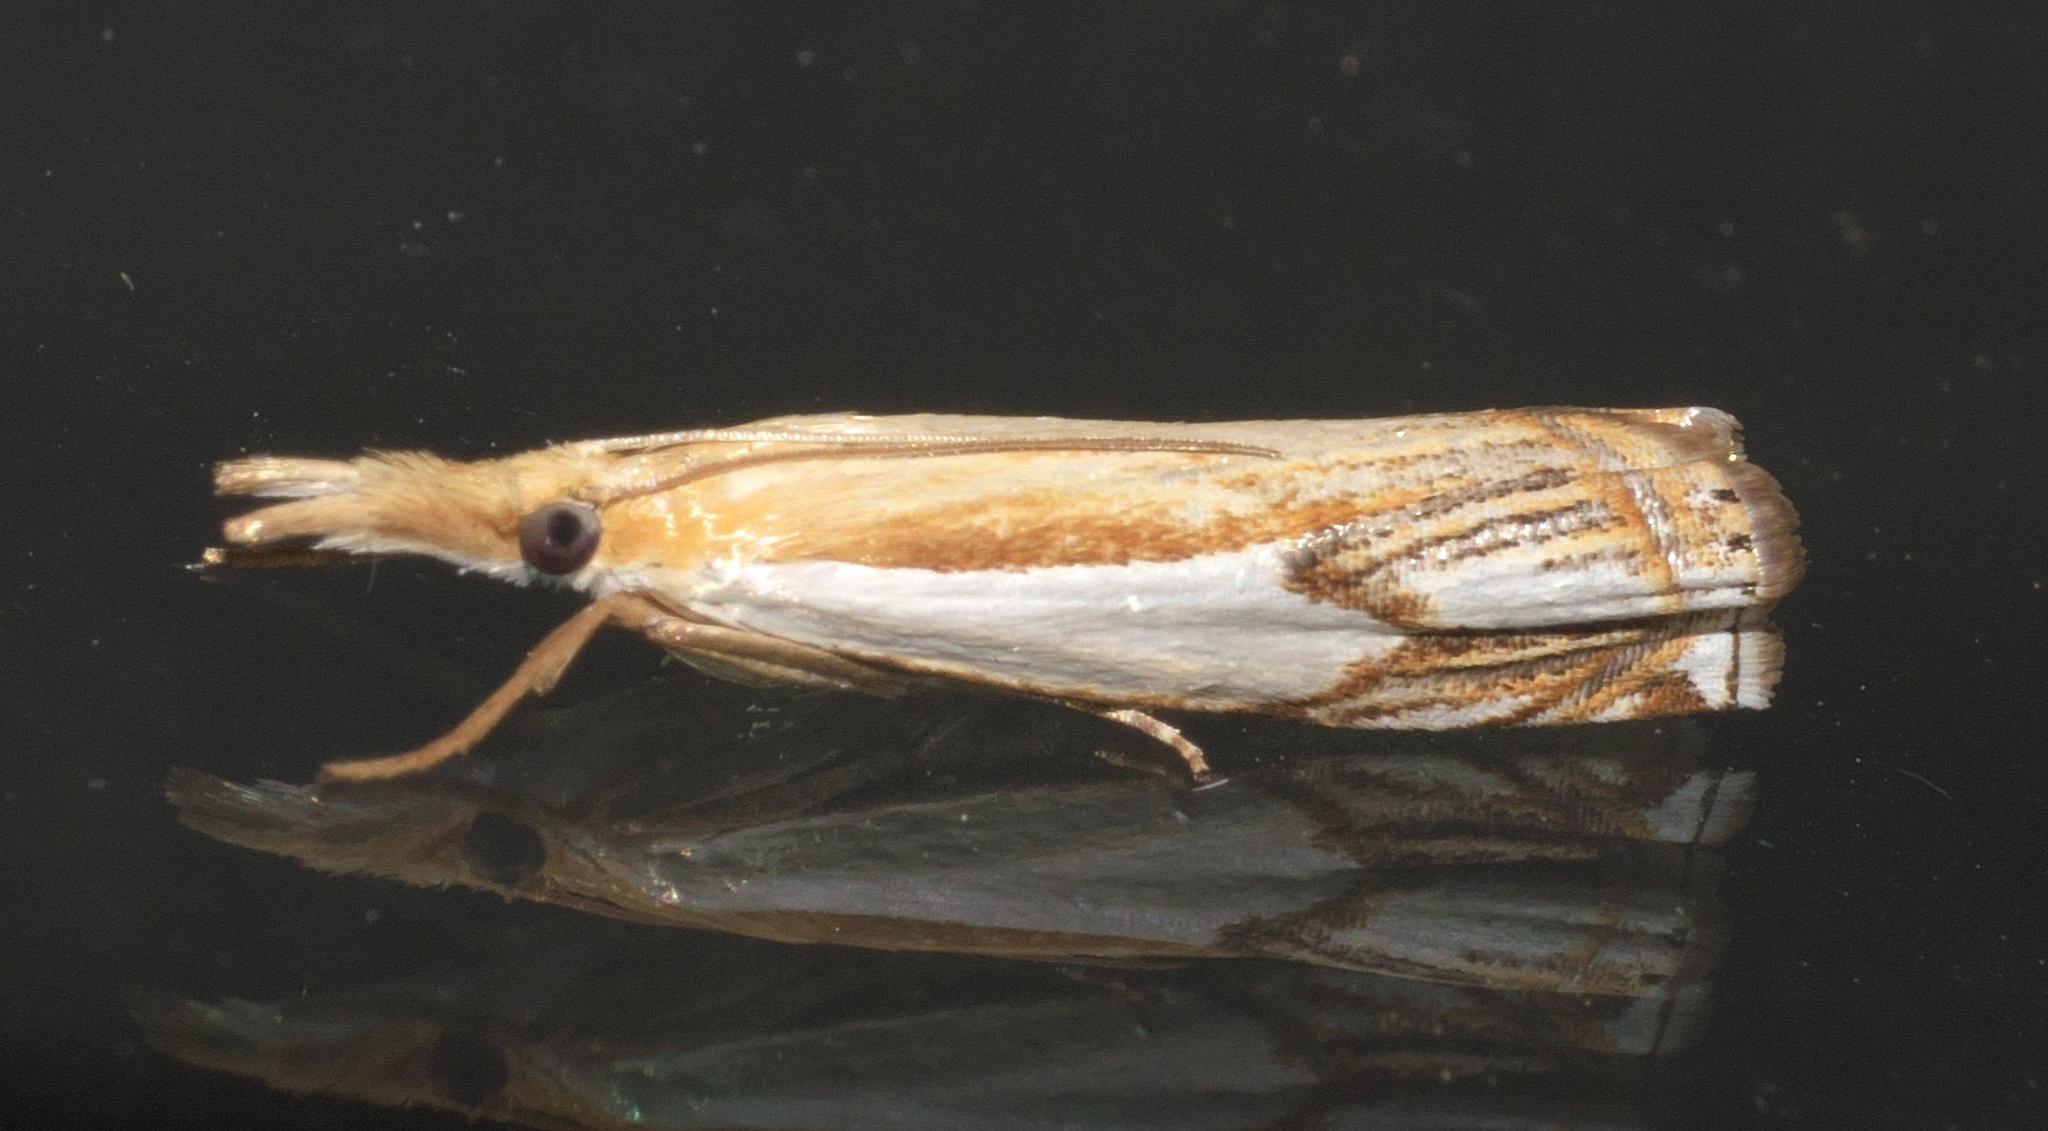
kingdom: Animalia
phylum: Arthropoda
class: Insecta
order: Lepidoptera
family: Crambidae
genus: Crambus
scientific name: Crambus agitatellus
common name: Double-banded grass-veneer
